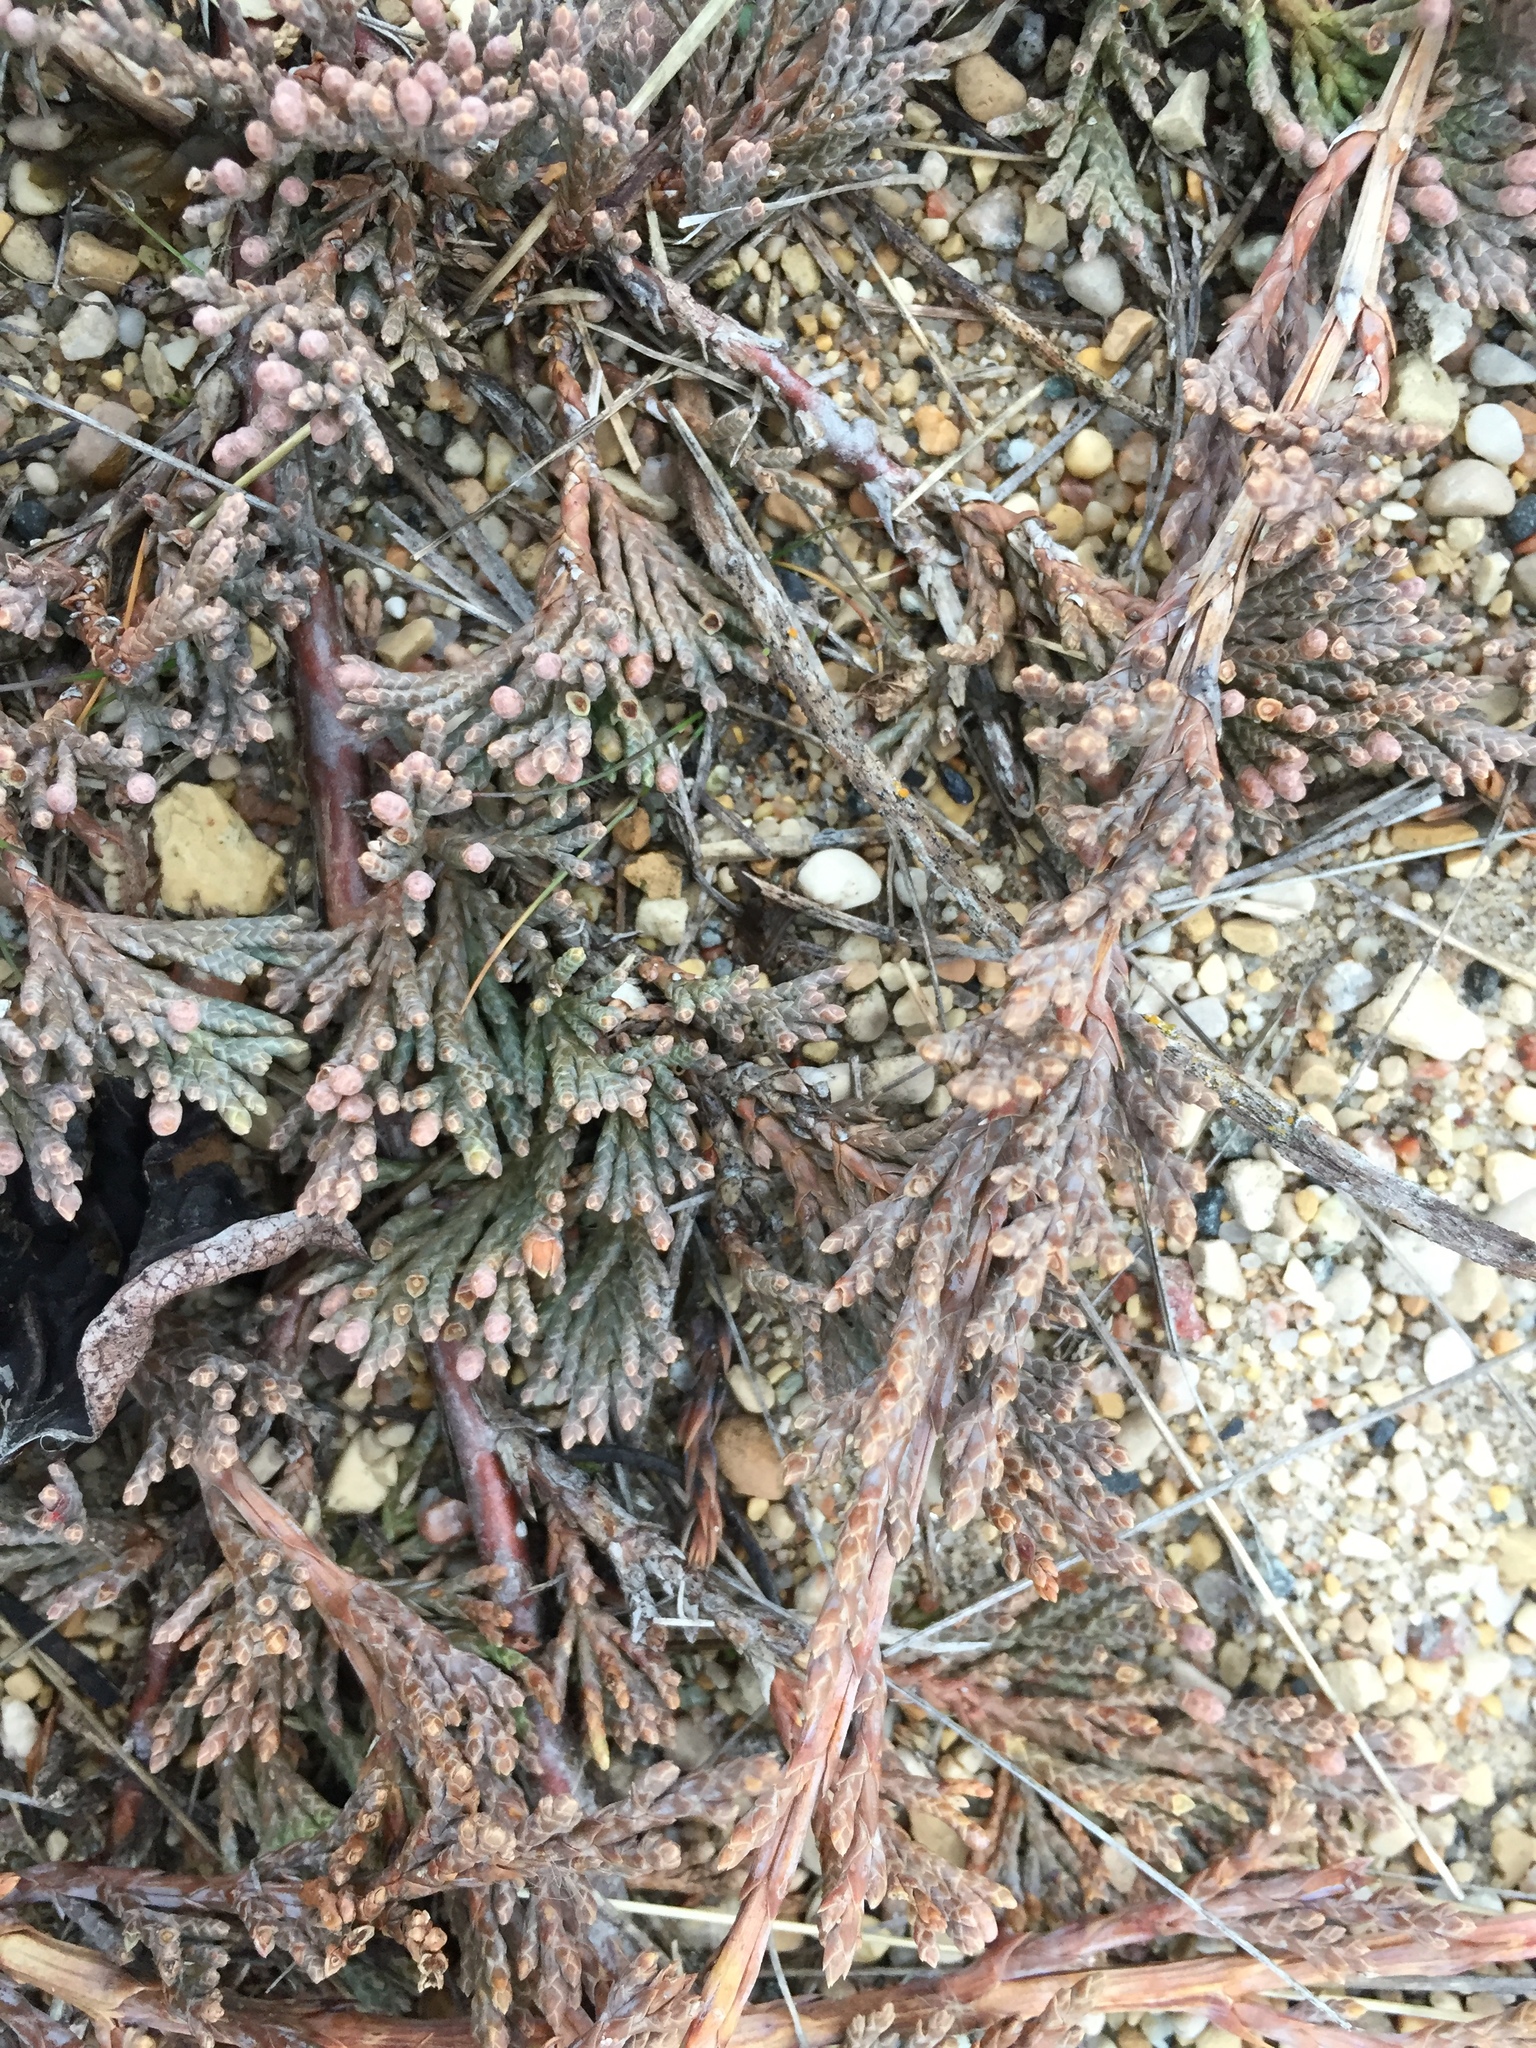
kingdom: Plantae
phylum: Tracheophyta
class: Pinopsida
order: Pinales
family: Cupressaceae
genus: Juniperus
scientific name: Juniperus horizontalis
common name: Creeping juniper
